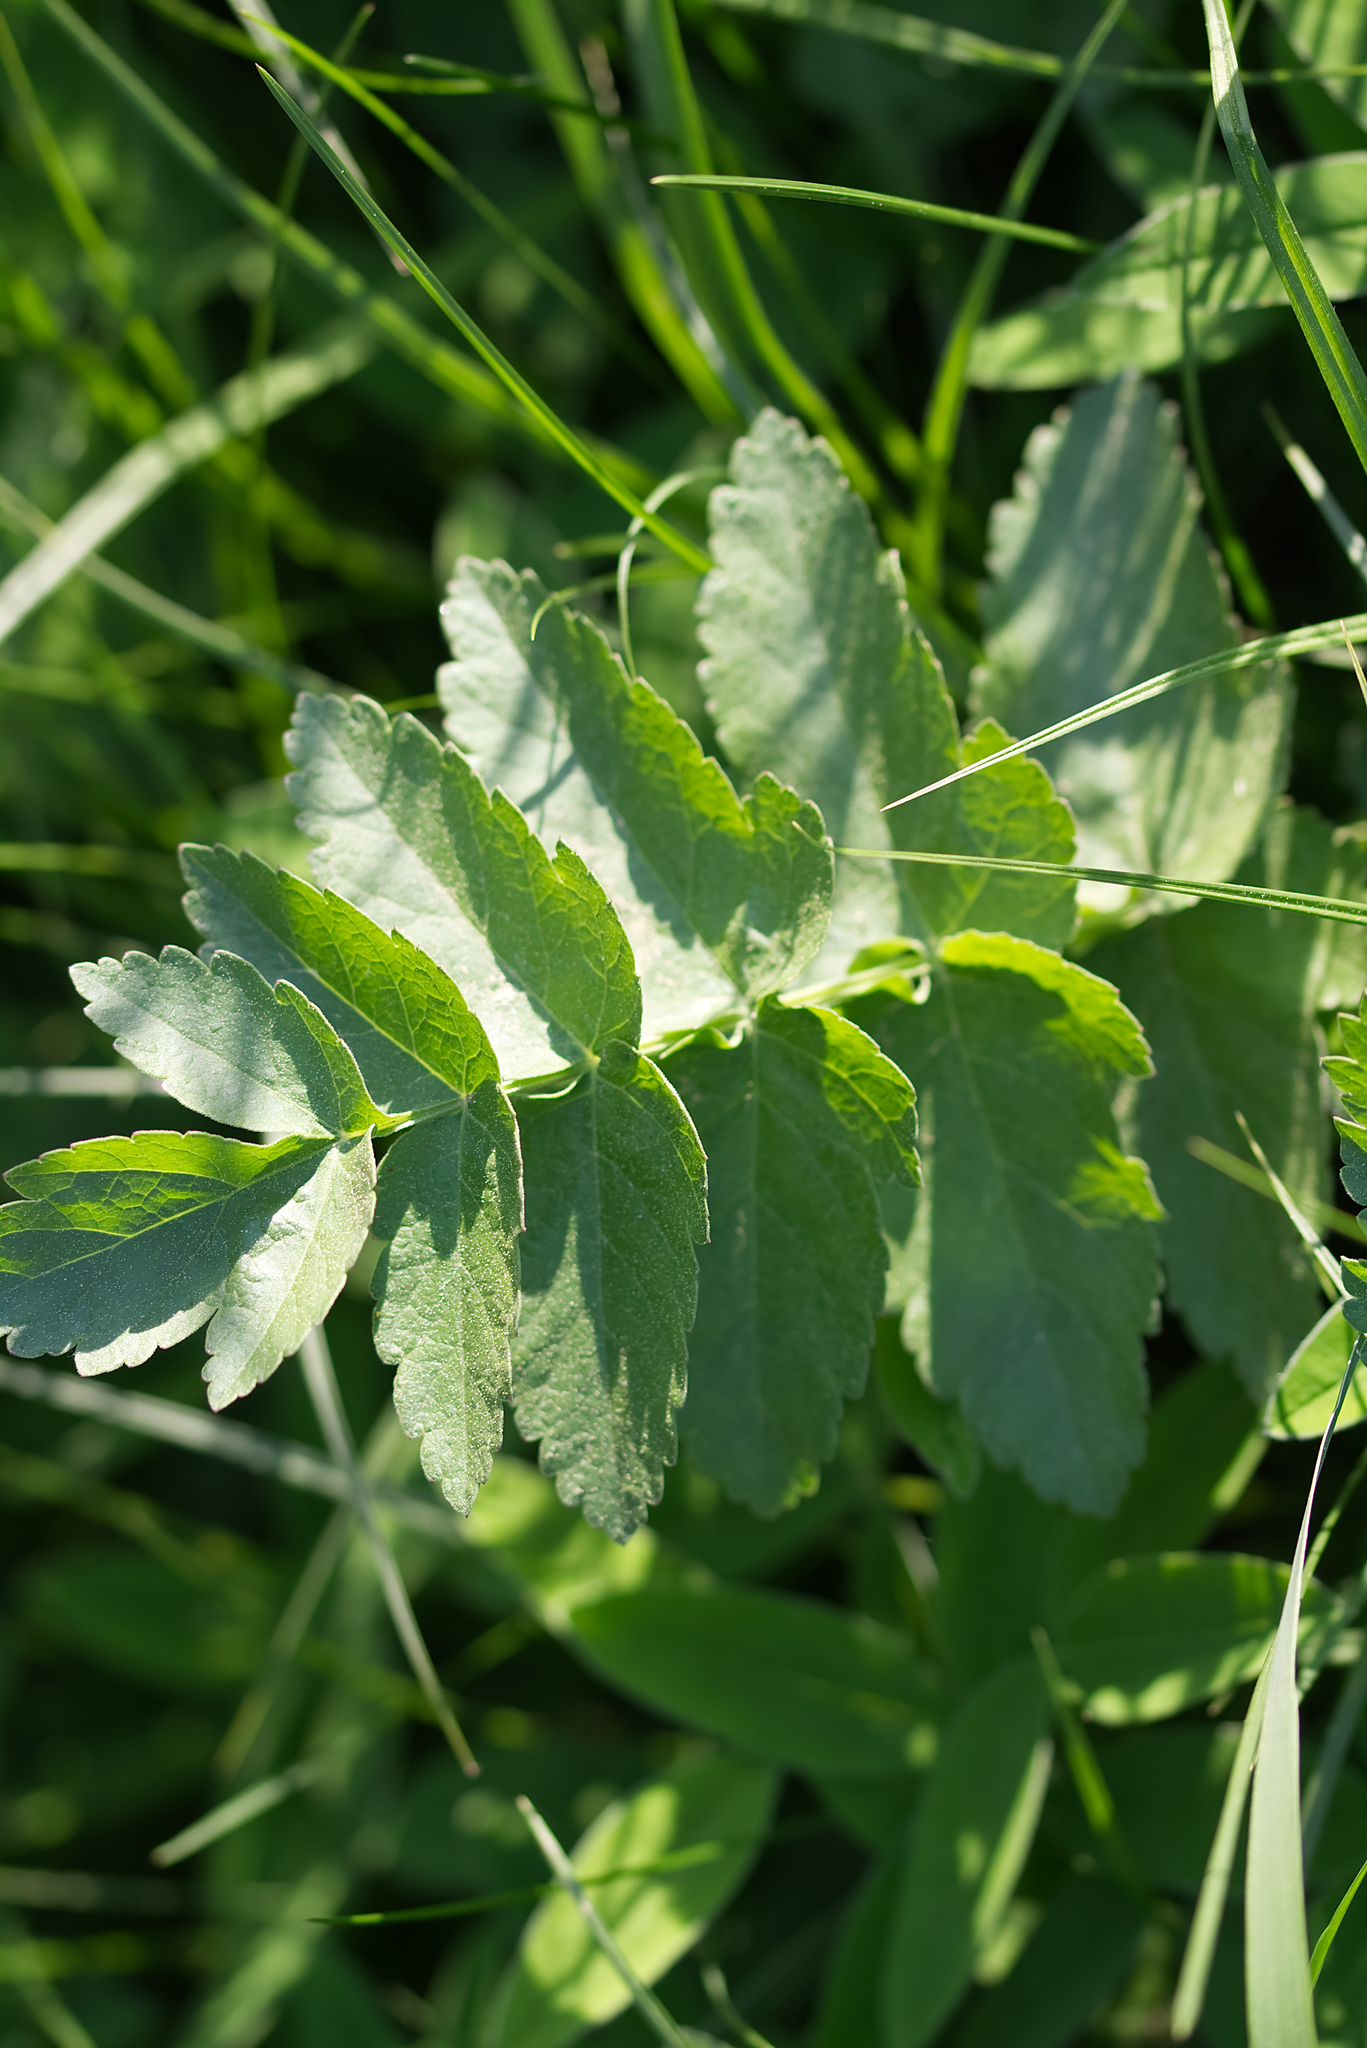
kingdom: Plantae
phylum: Tracheophyta
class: Magnoliopsida
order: Apiales
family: Apiaceae
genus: Pastinaca
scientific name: Pastinaca sativa
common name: Wild parsnip
